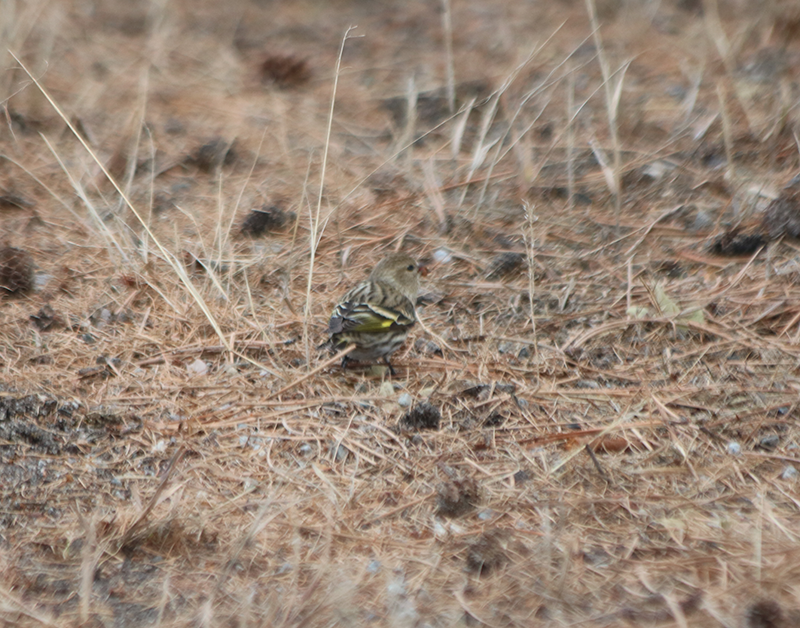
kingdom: Animalia
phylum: Chordata
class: Aves
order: Passeriformes
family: Fringillidae
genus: Spinus
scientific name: Spinus pinus
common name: Pine siskin
